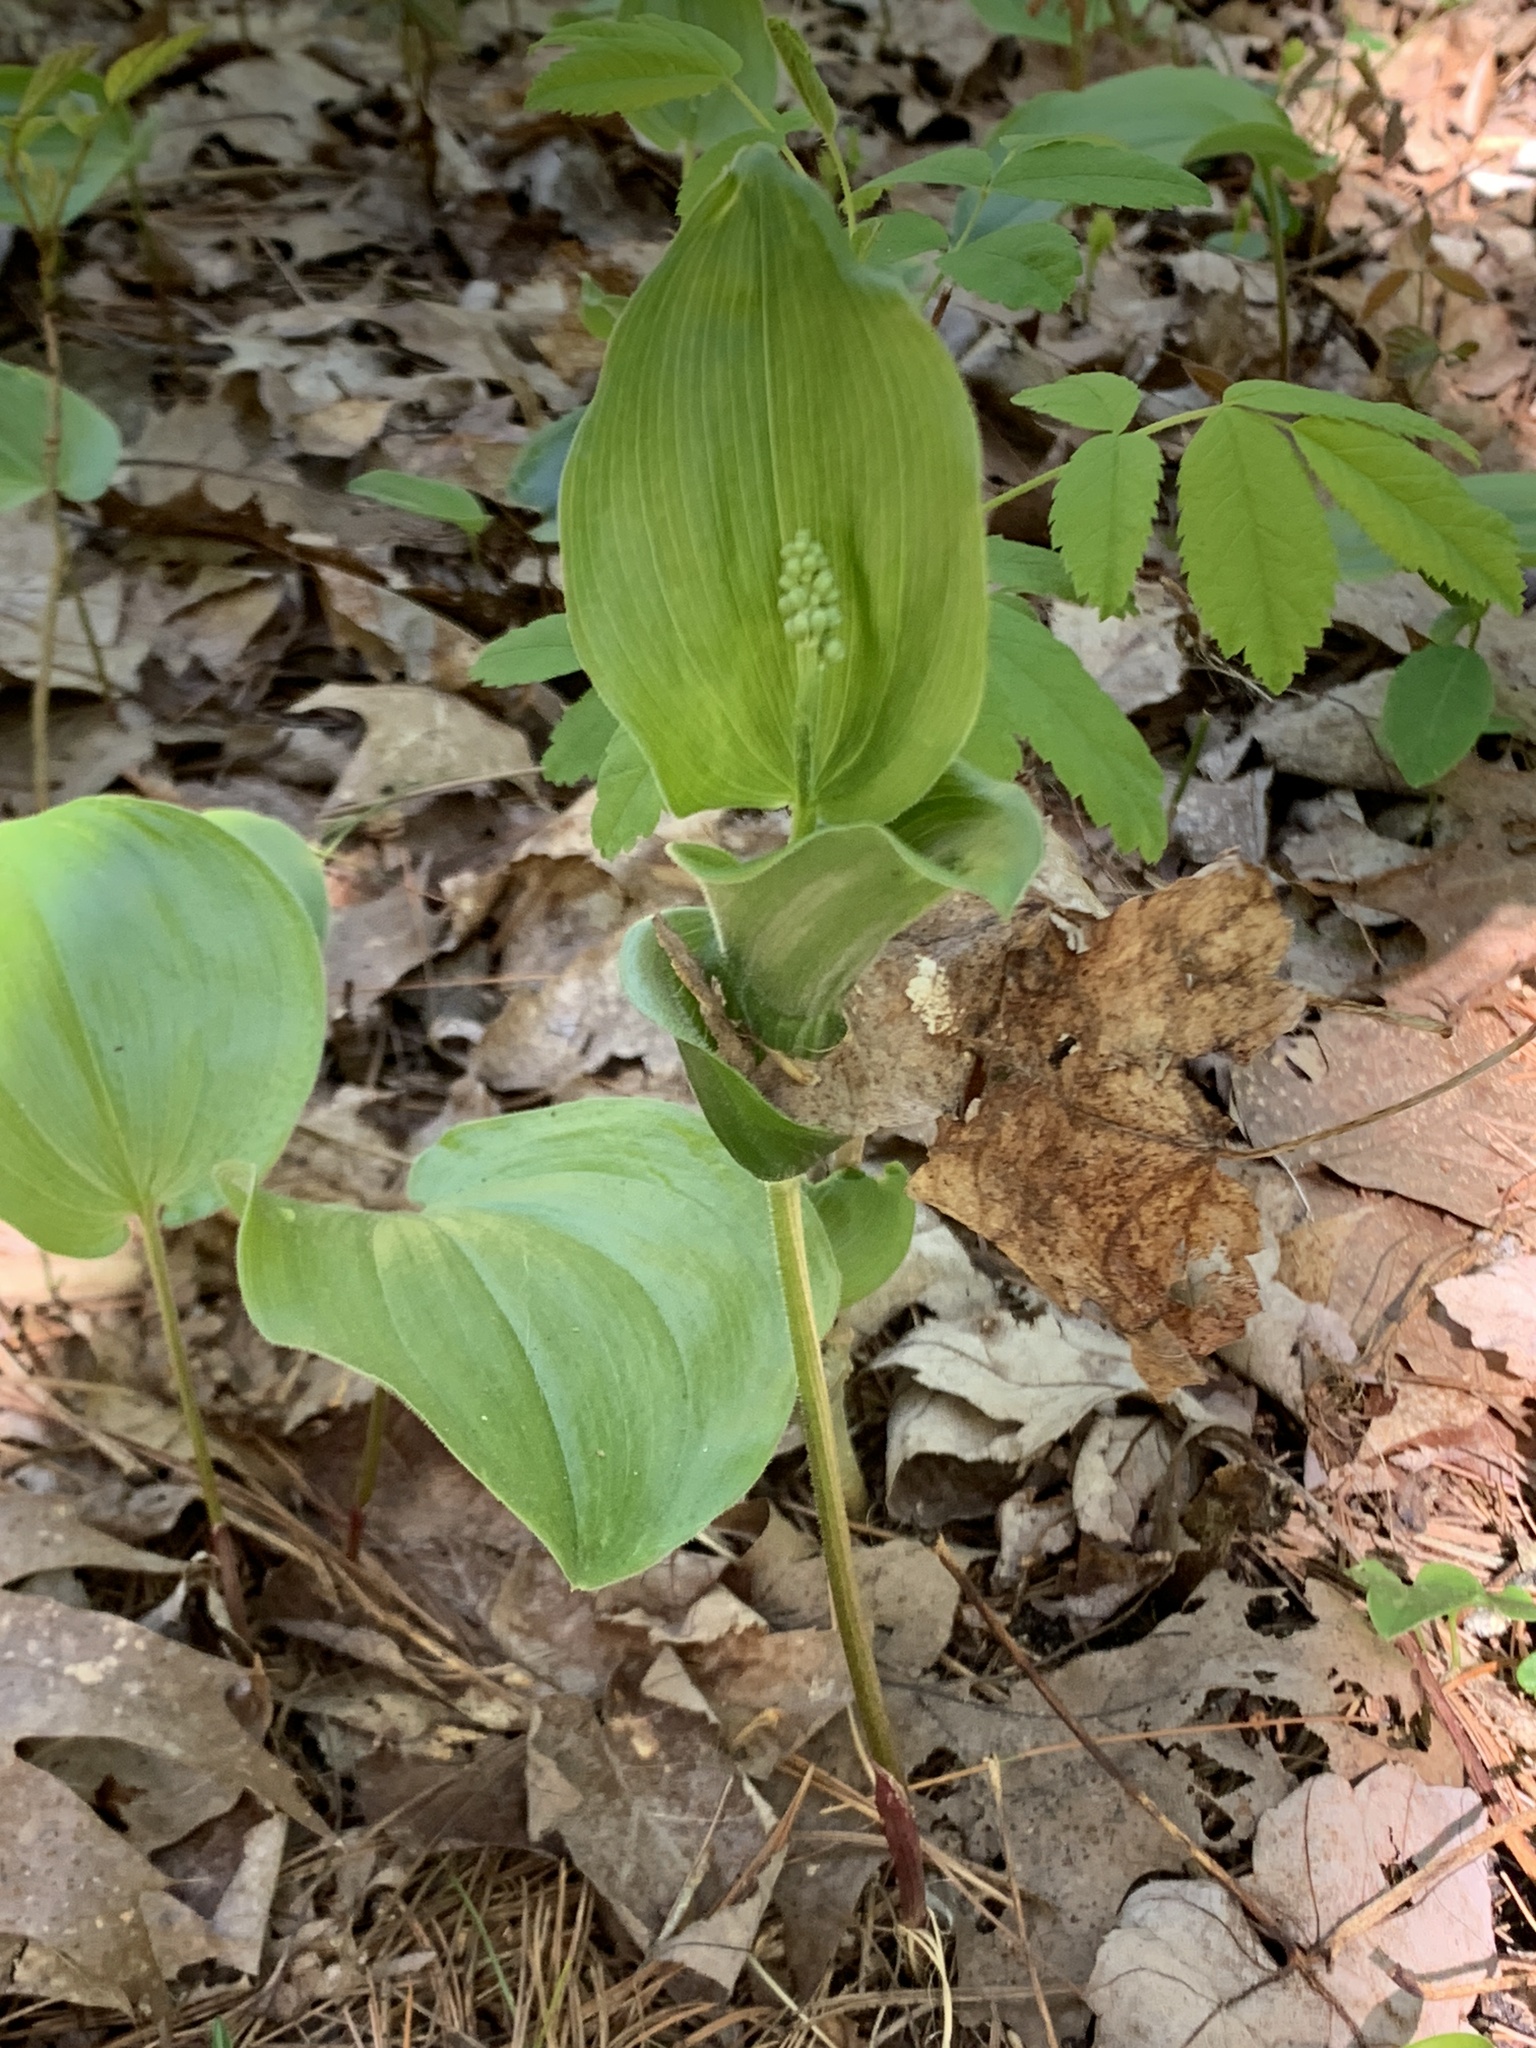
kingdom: Plantae
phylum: Tracheophyta
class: Liliopsida
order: Asparagales
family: Asparagaceae
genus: Maianthemum
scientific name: Maianthemum canadense
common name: False lily-of-the-valley
